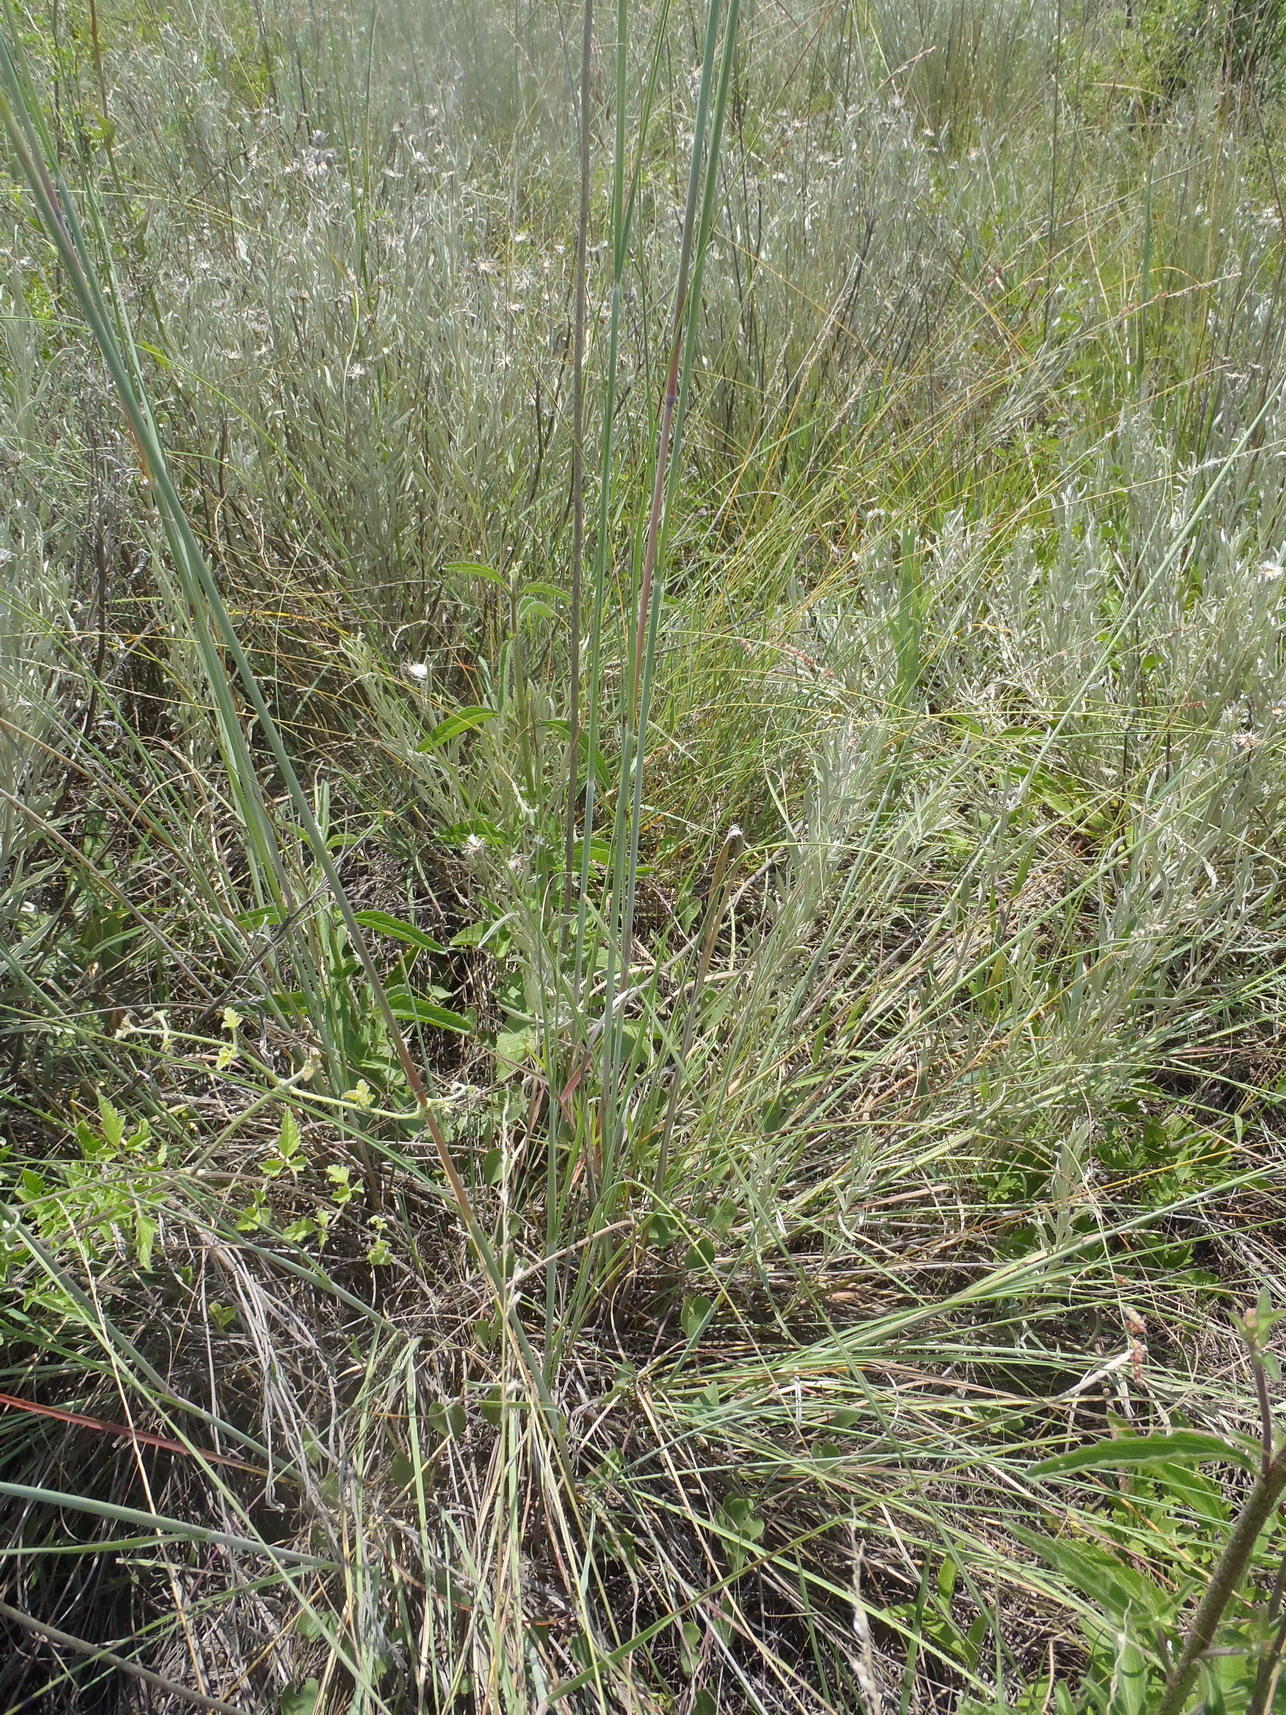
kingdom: Plantae
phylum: Tracheophyta
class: Liliopsida
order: Poales
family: Poaceae
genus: Trachypogon
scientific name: Trachypogon spicatus
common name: Crinkle-awn
